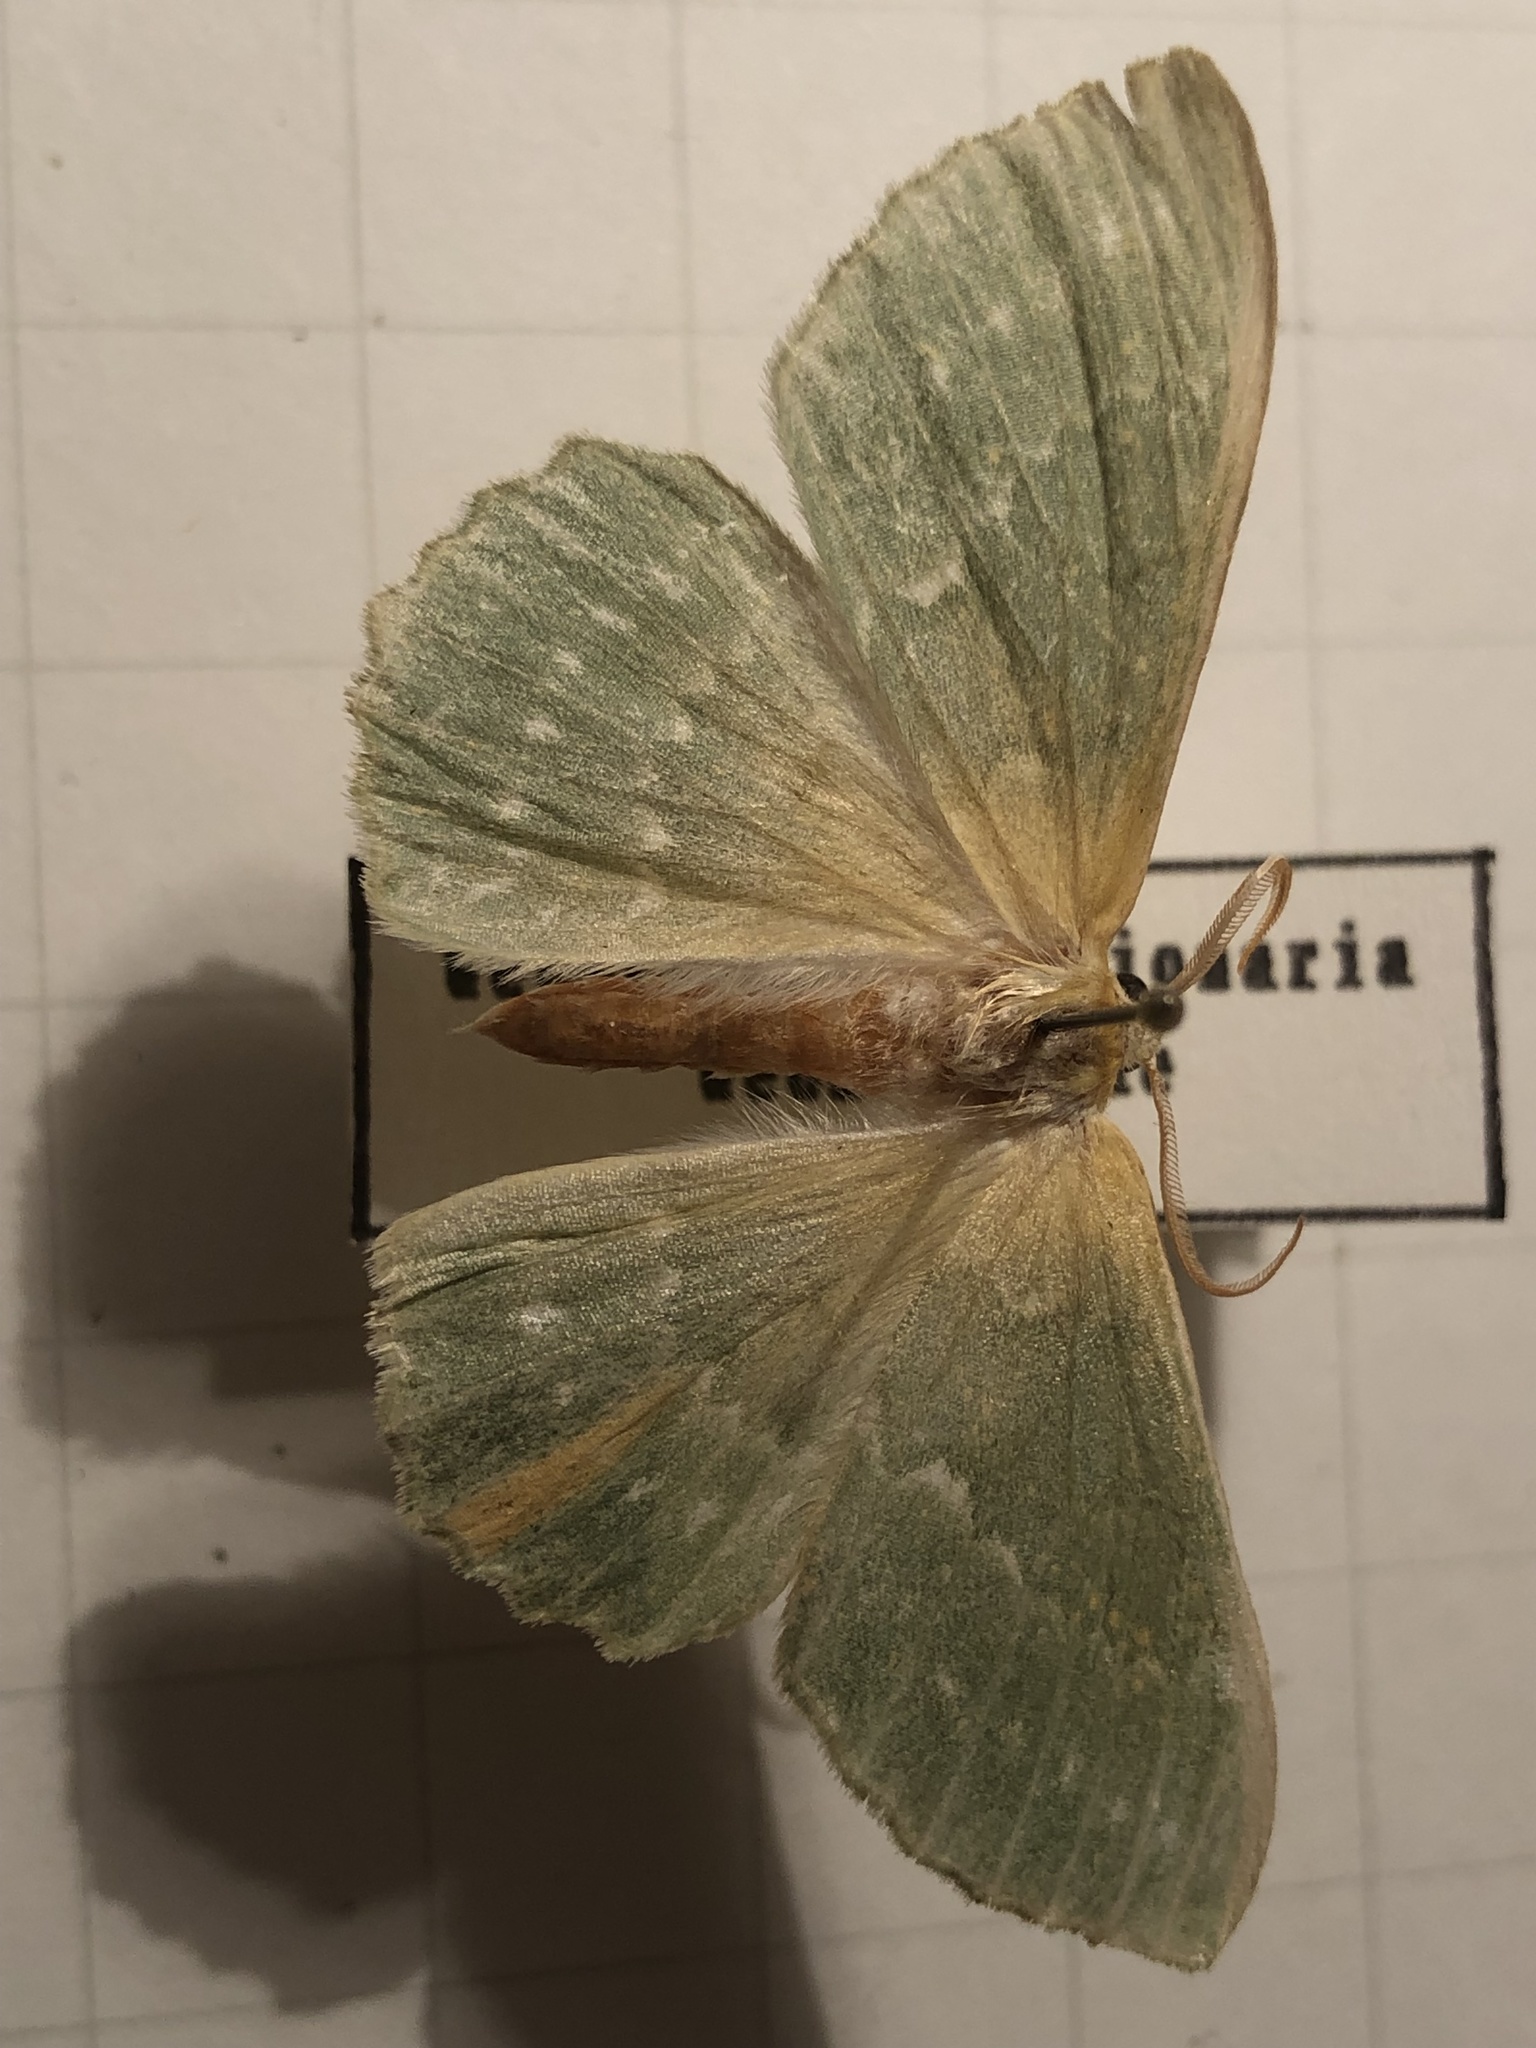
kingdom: Animalia
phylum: Arthropoda
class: Insecta
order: Lepidoptera
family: Geometridae
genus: Geometra
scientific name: Geometra papilionaria
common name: Large emerald
